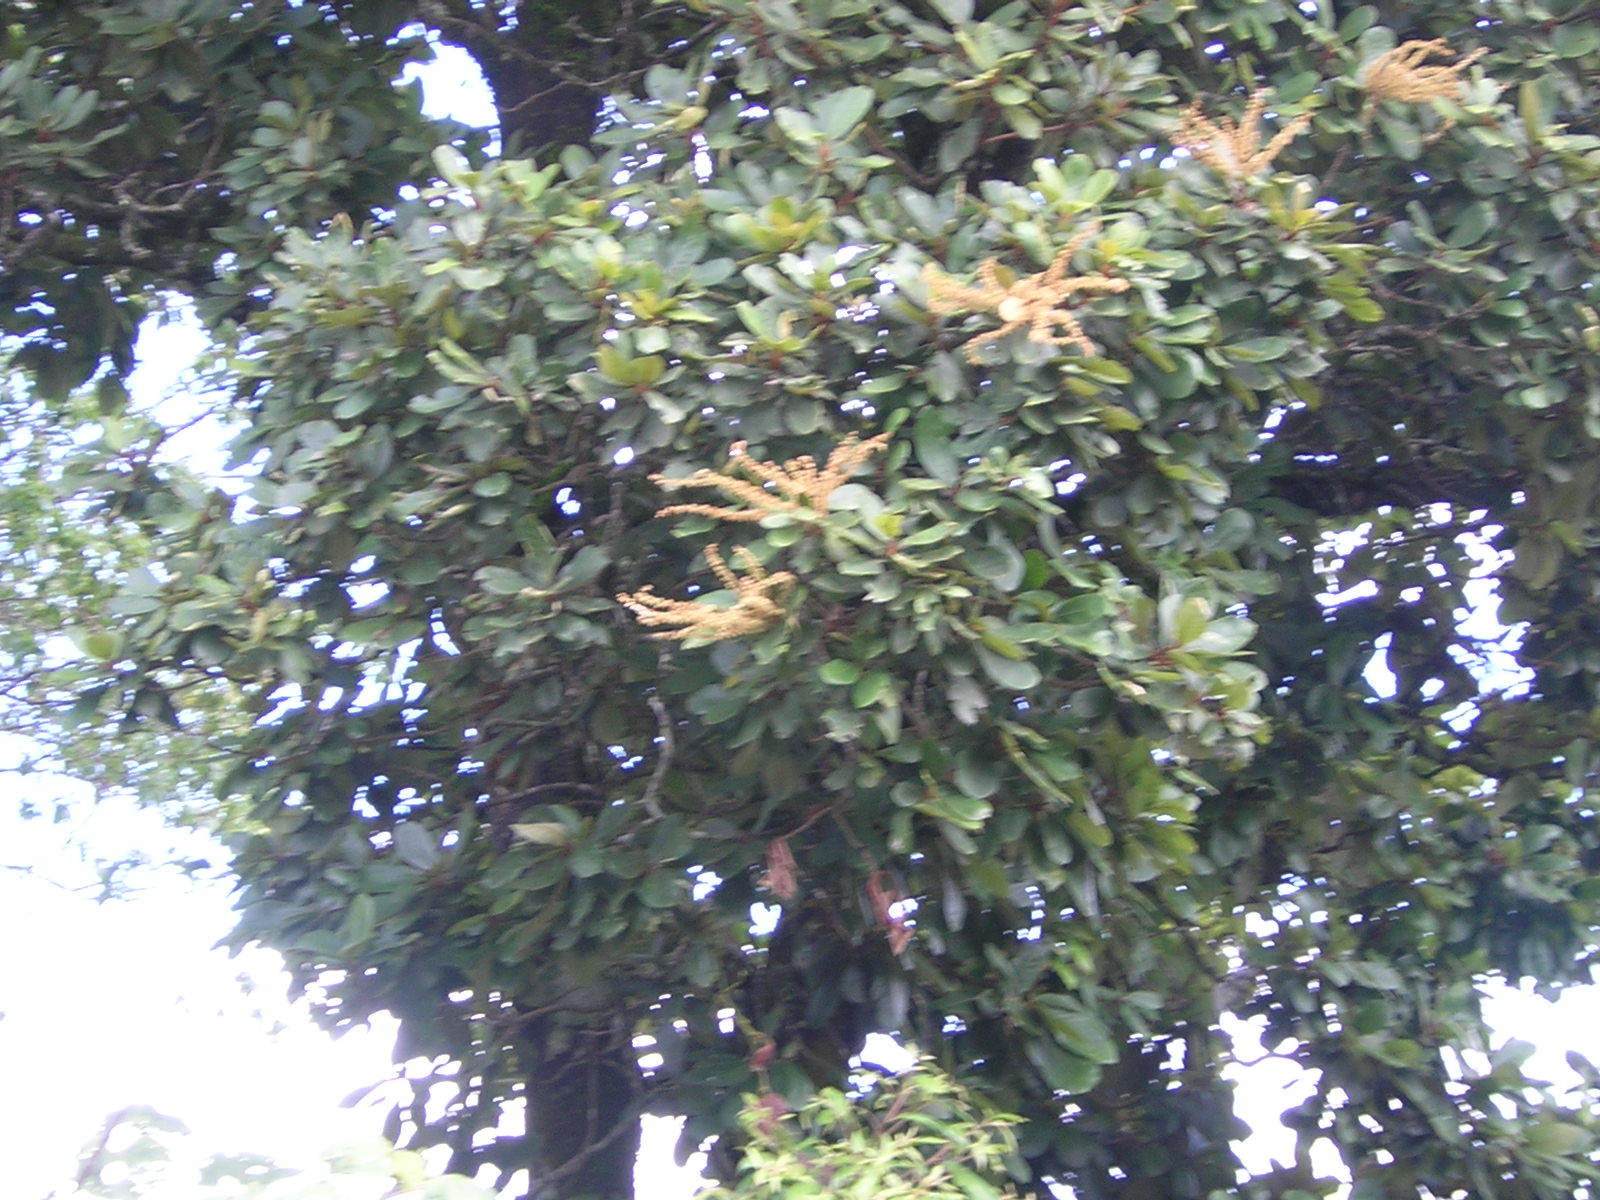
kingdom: Plantae
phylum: Tracheophyta
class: Magnoliopsida
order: Ericales
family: Clethraceae
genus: Clethra
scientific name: Clethra chiapensis
